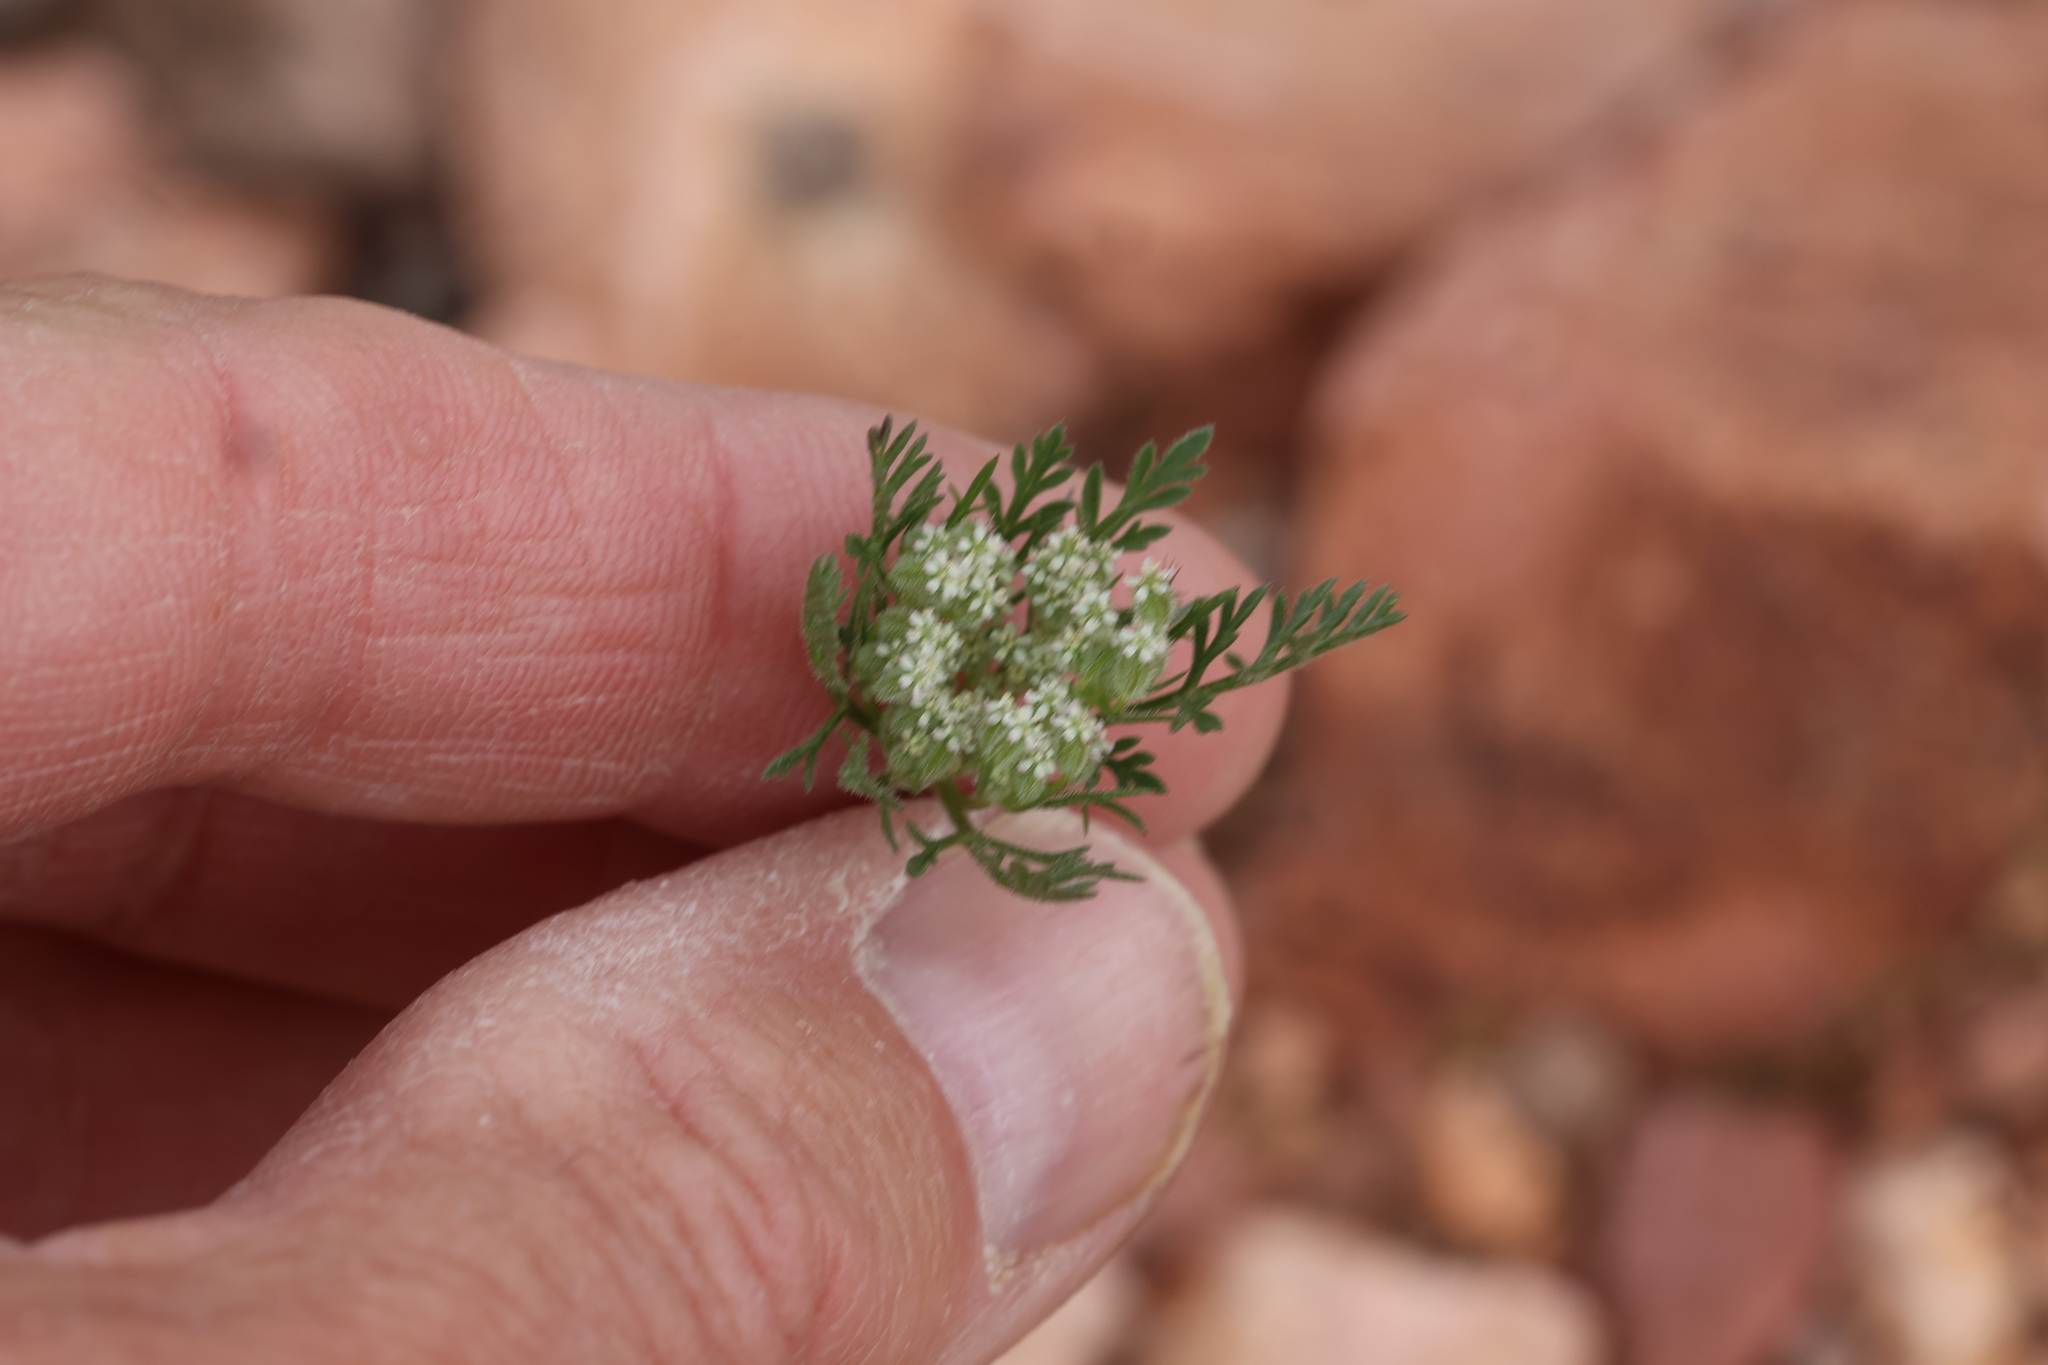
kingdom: Plantae
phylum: Tracheophyta
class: Magnoliopsida
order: Apiales
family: Apiaceae
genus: Daucus
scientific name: Daucus pusillus
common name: Southwest wild carrot
